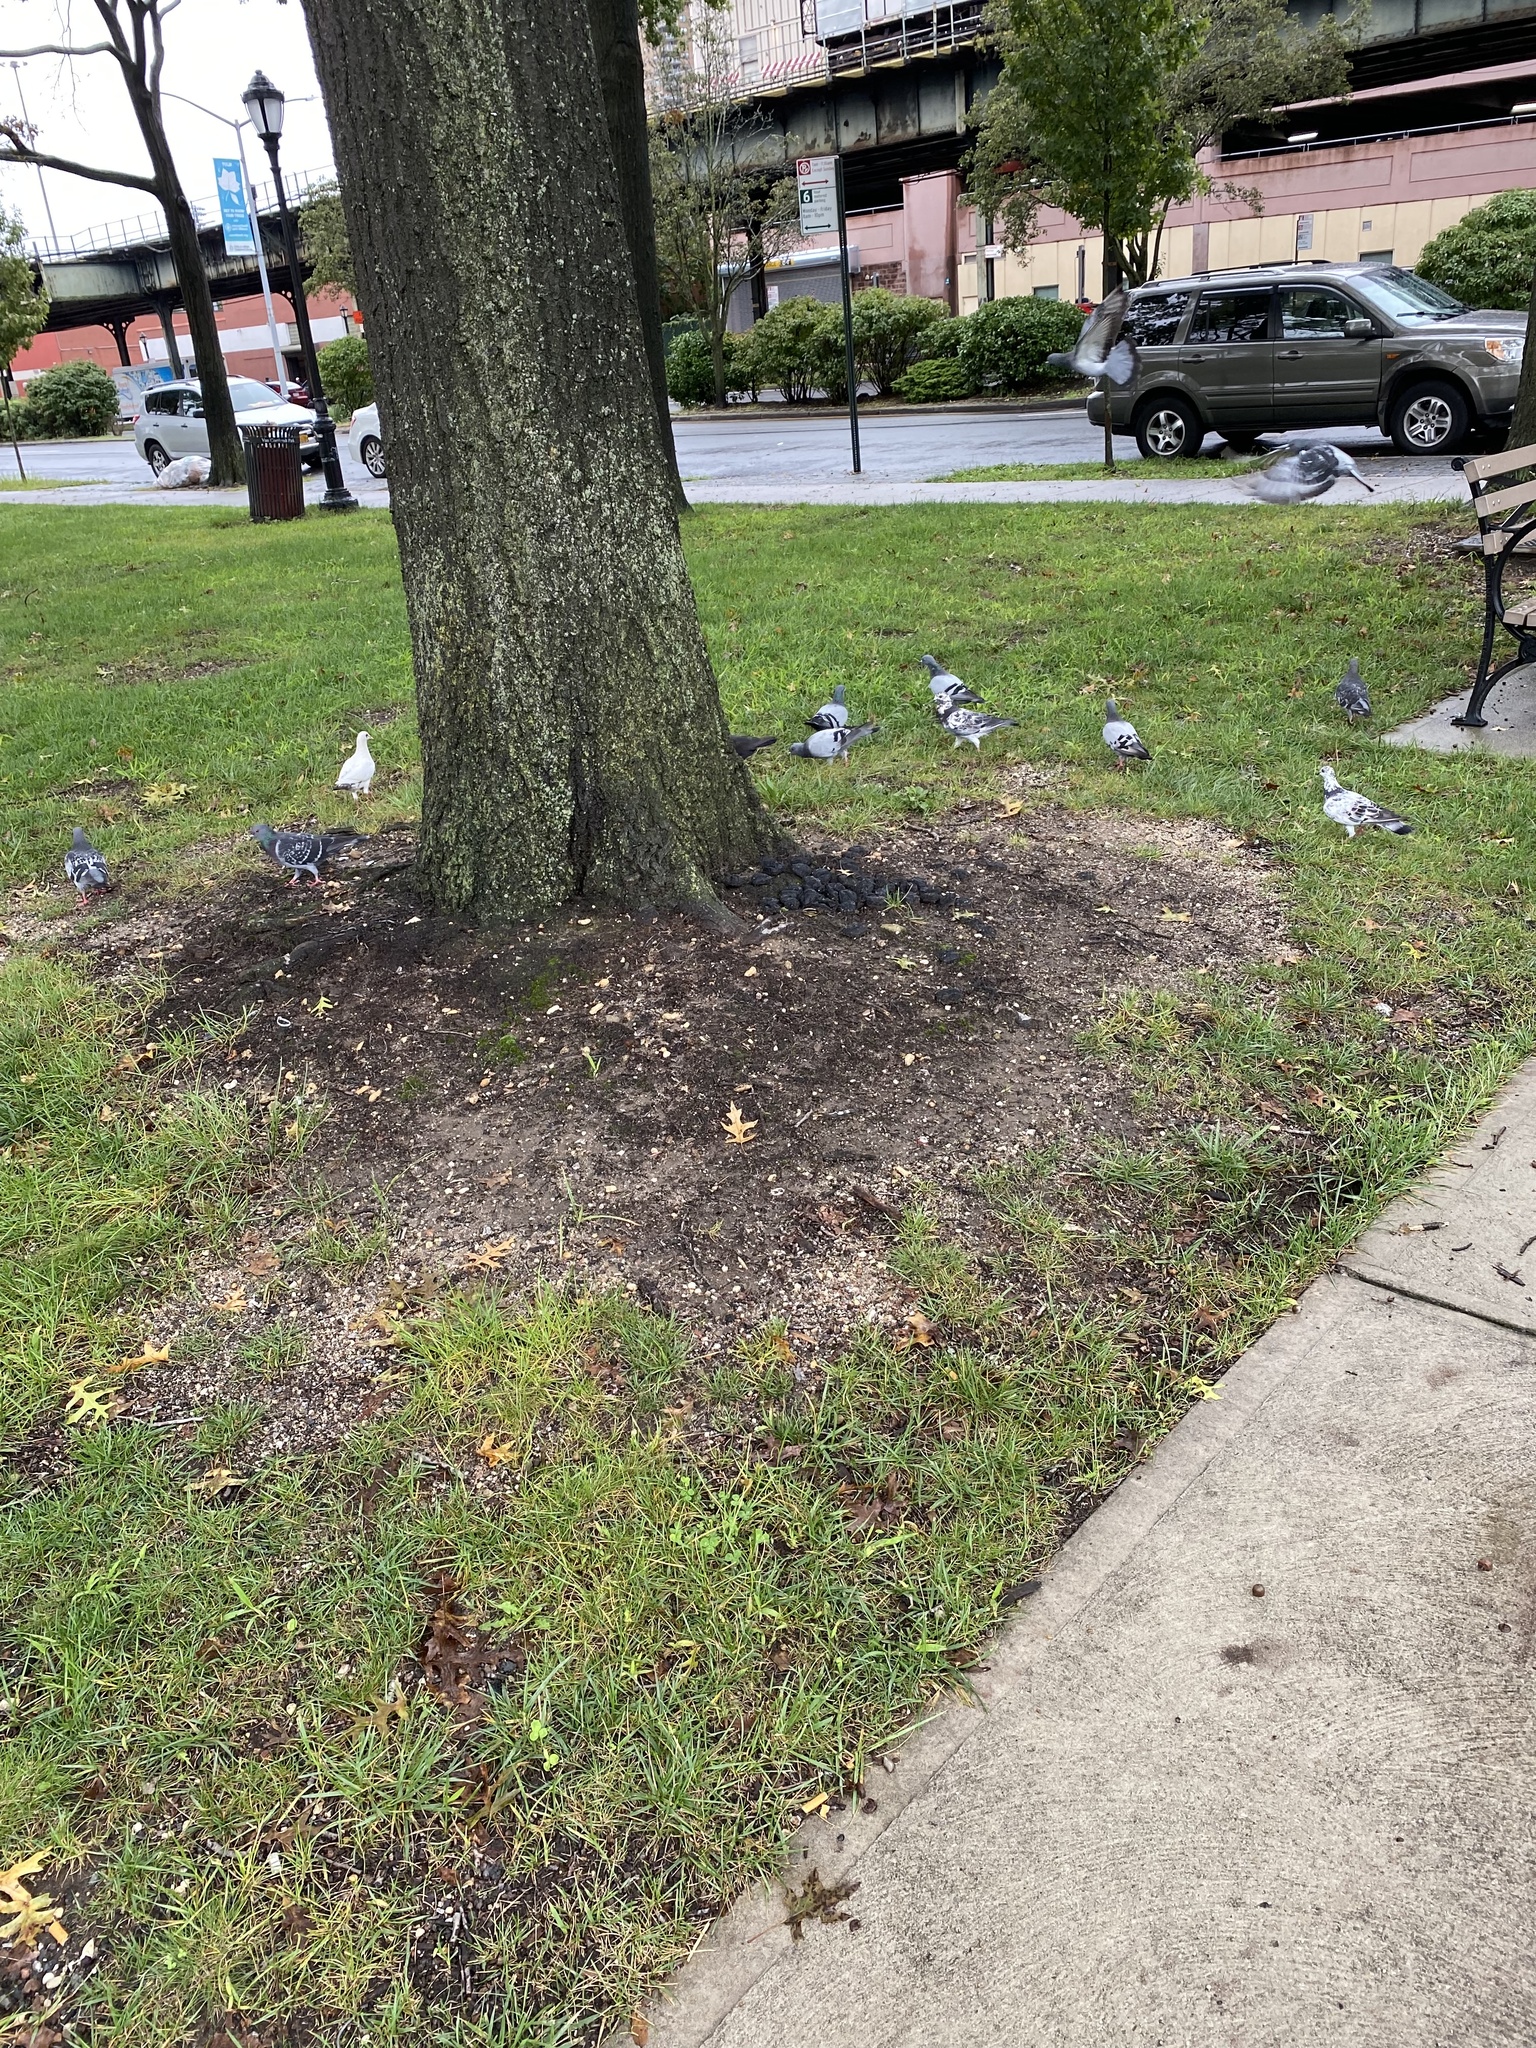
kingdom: Animalia
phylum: Chordata
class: Aves
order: Columbiformes
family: Columbidae
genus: Columba
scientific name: Columba livia
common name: Rock pigeon
